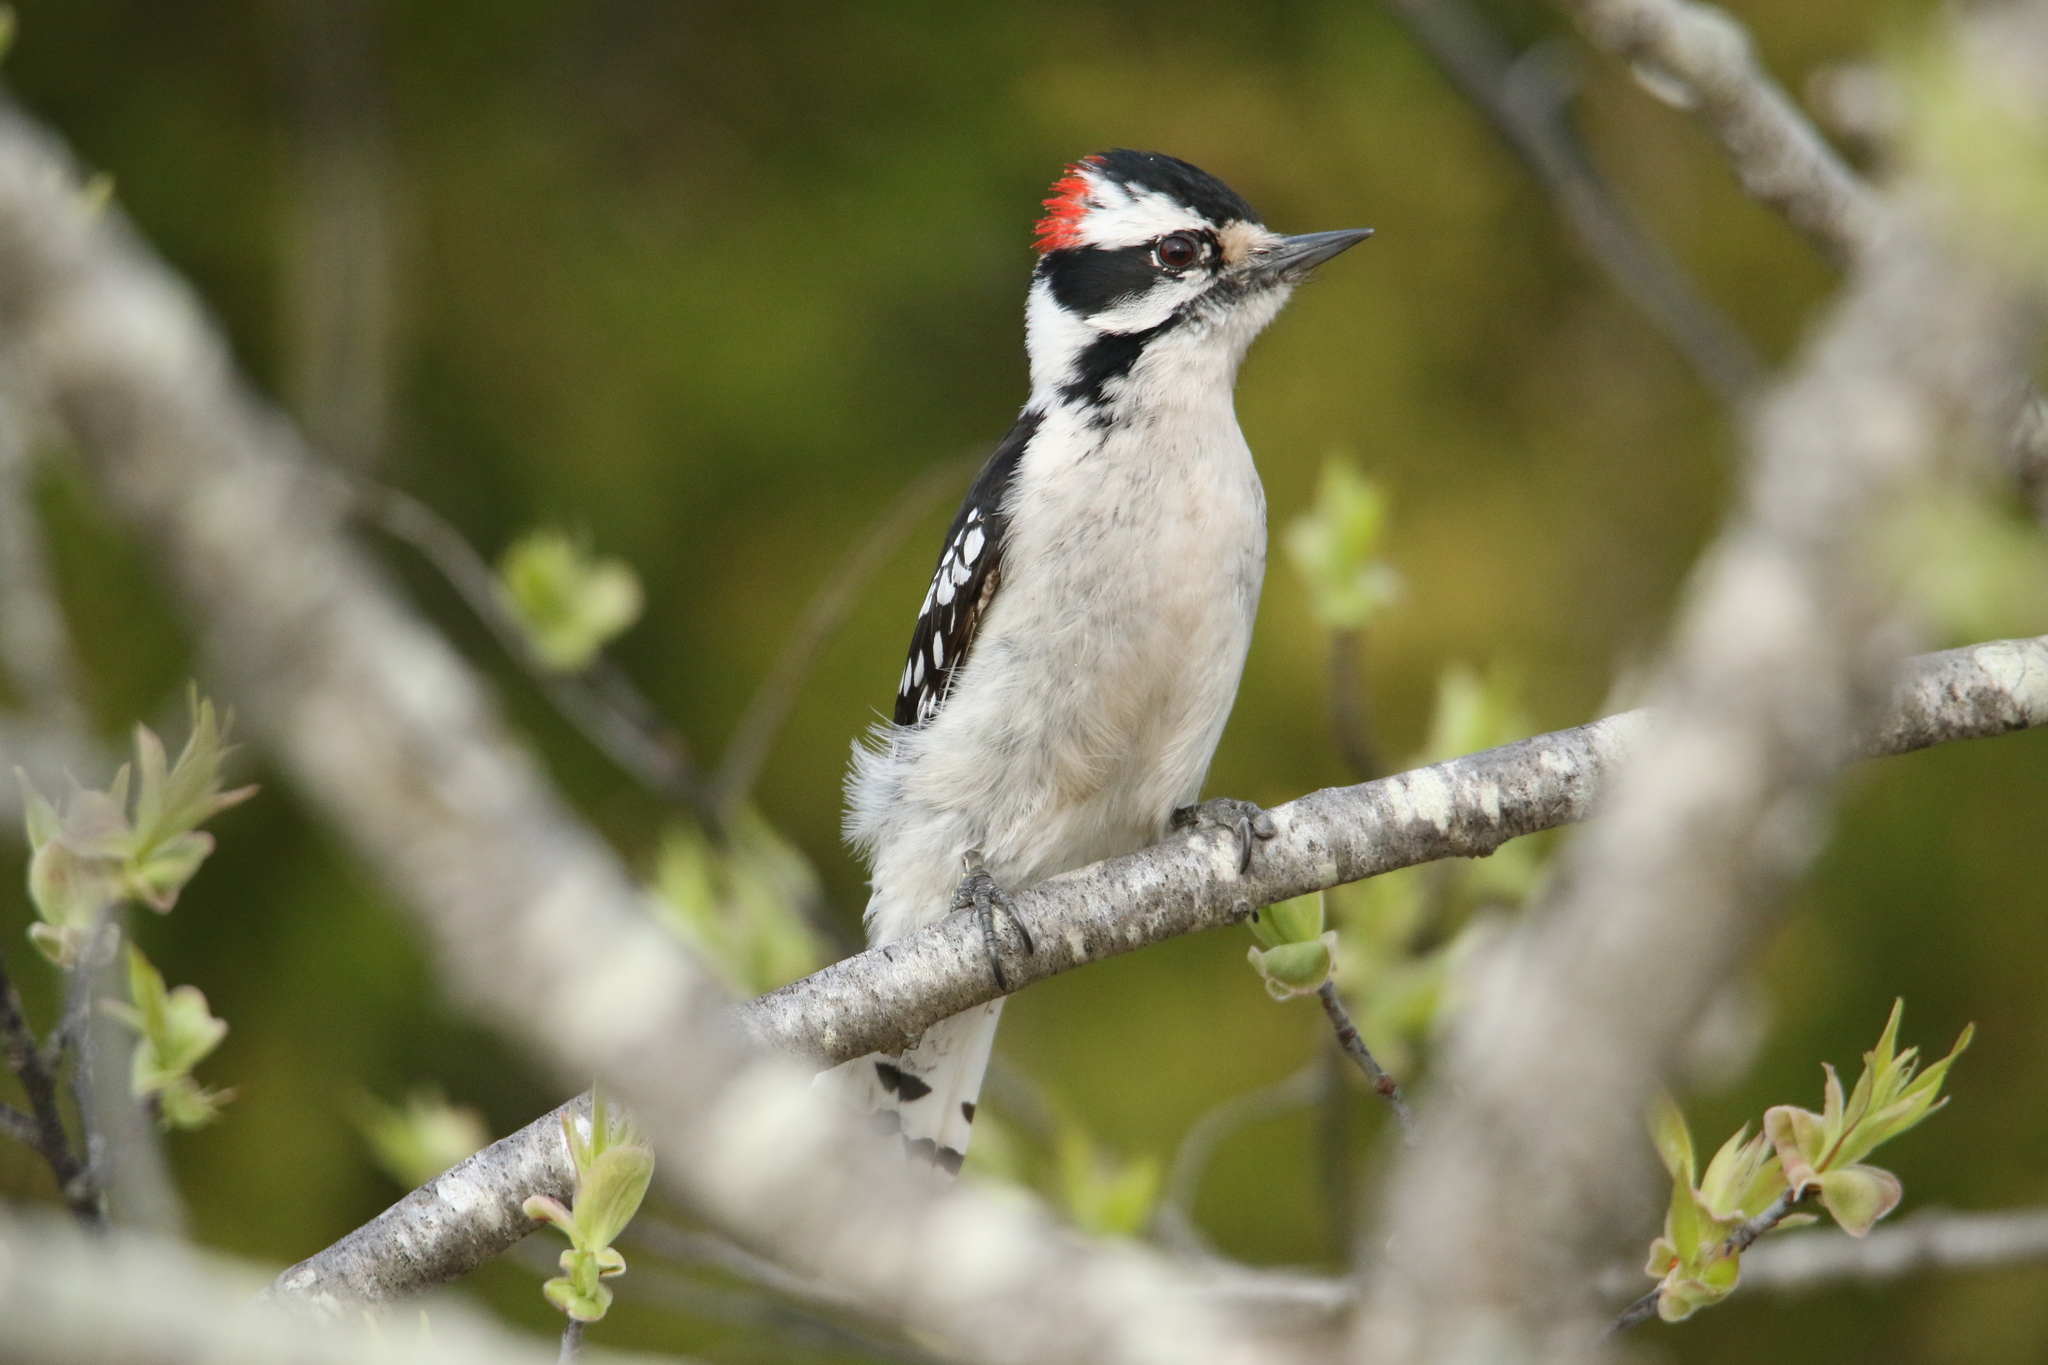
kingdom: Animalia
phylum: Chordata
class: Aves
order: Piciformes
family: Picidae
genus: Dryobates
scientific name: Dryobates pubescens
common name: Downy woodpecker
